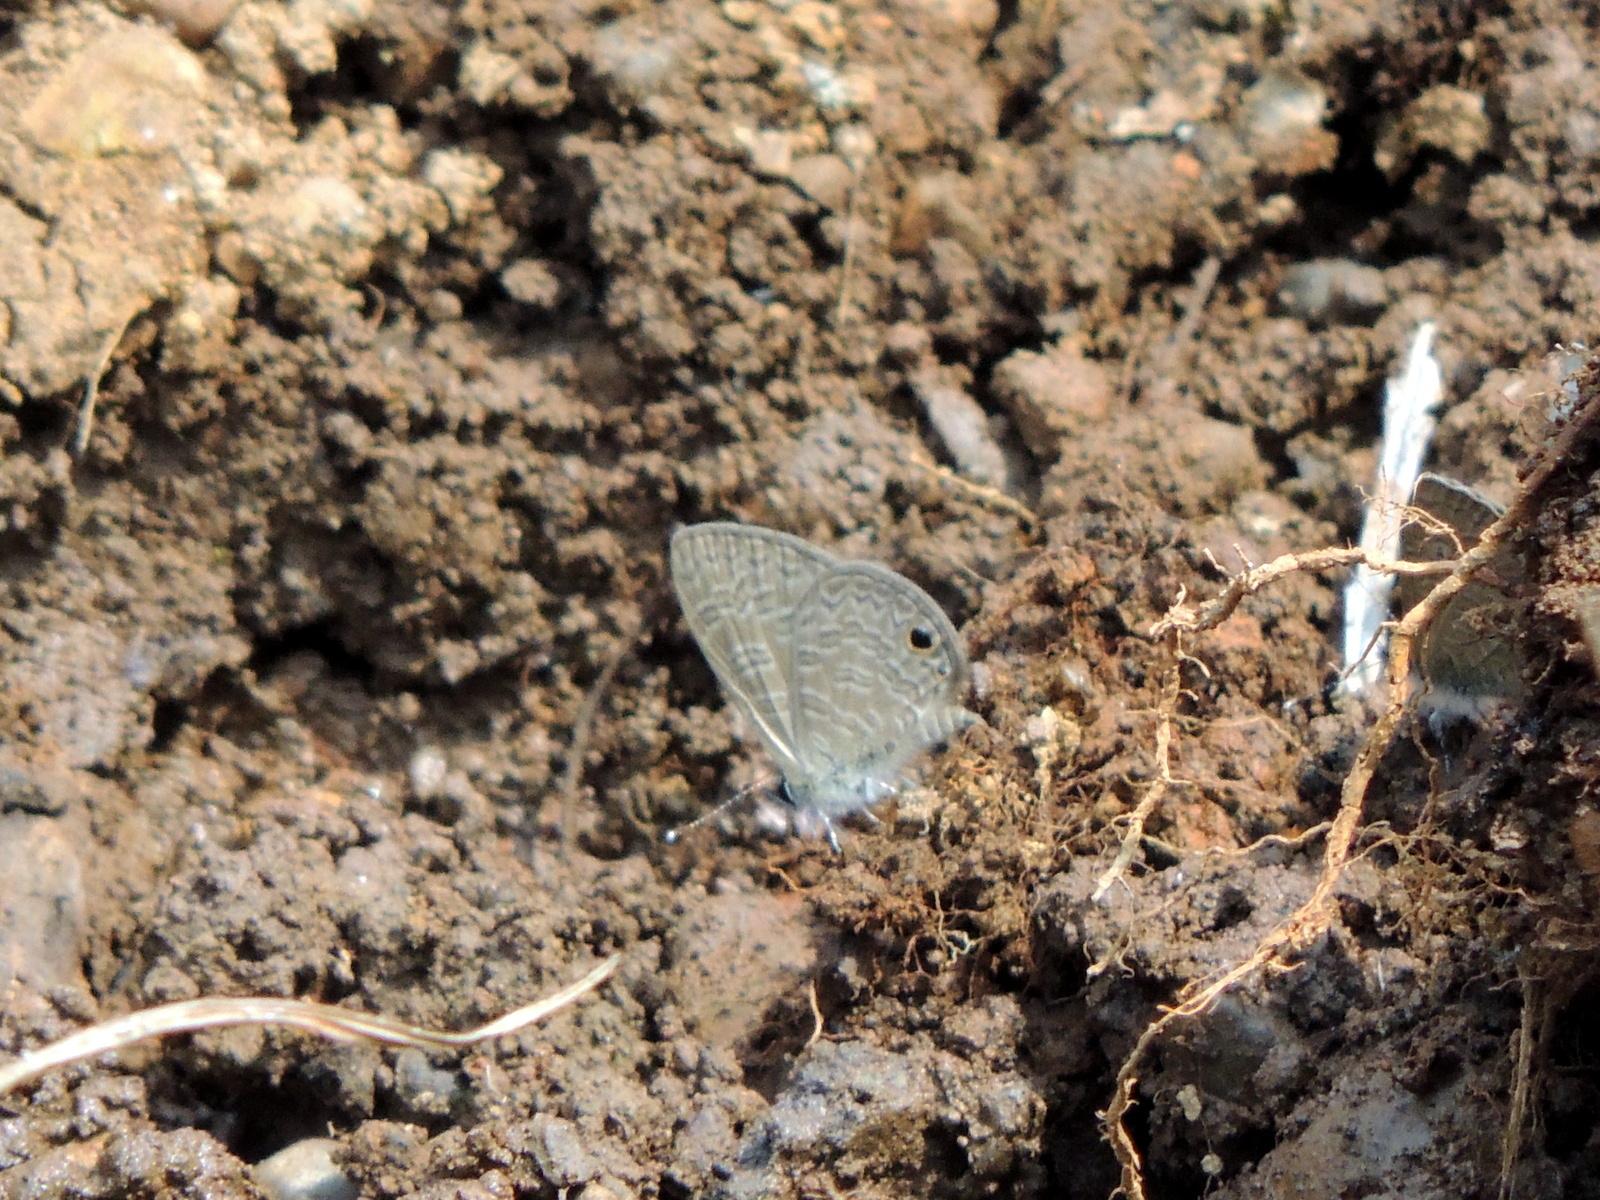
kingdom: Animalia
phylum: Arthropoda
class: Insecta
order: Lepidoptera
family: Lycaenidae
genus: Prosotas
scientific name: Prosotas dubiosa
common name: Tailless lineblue
